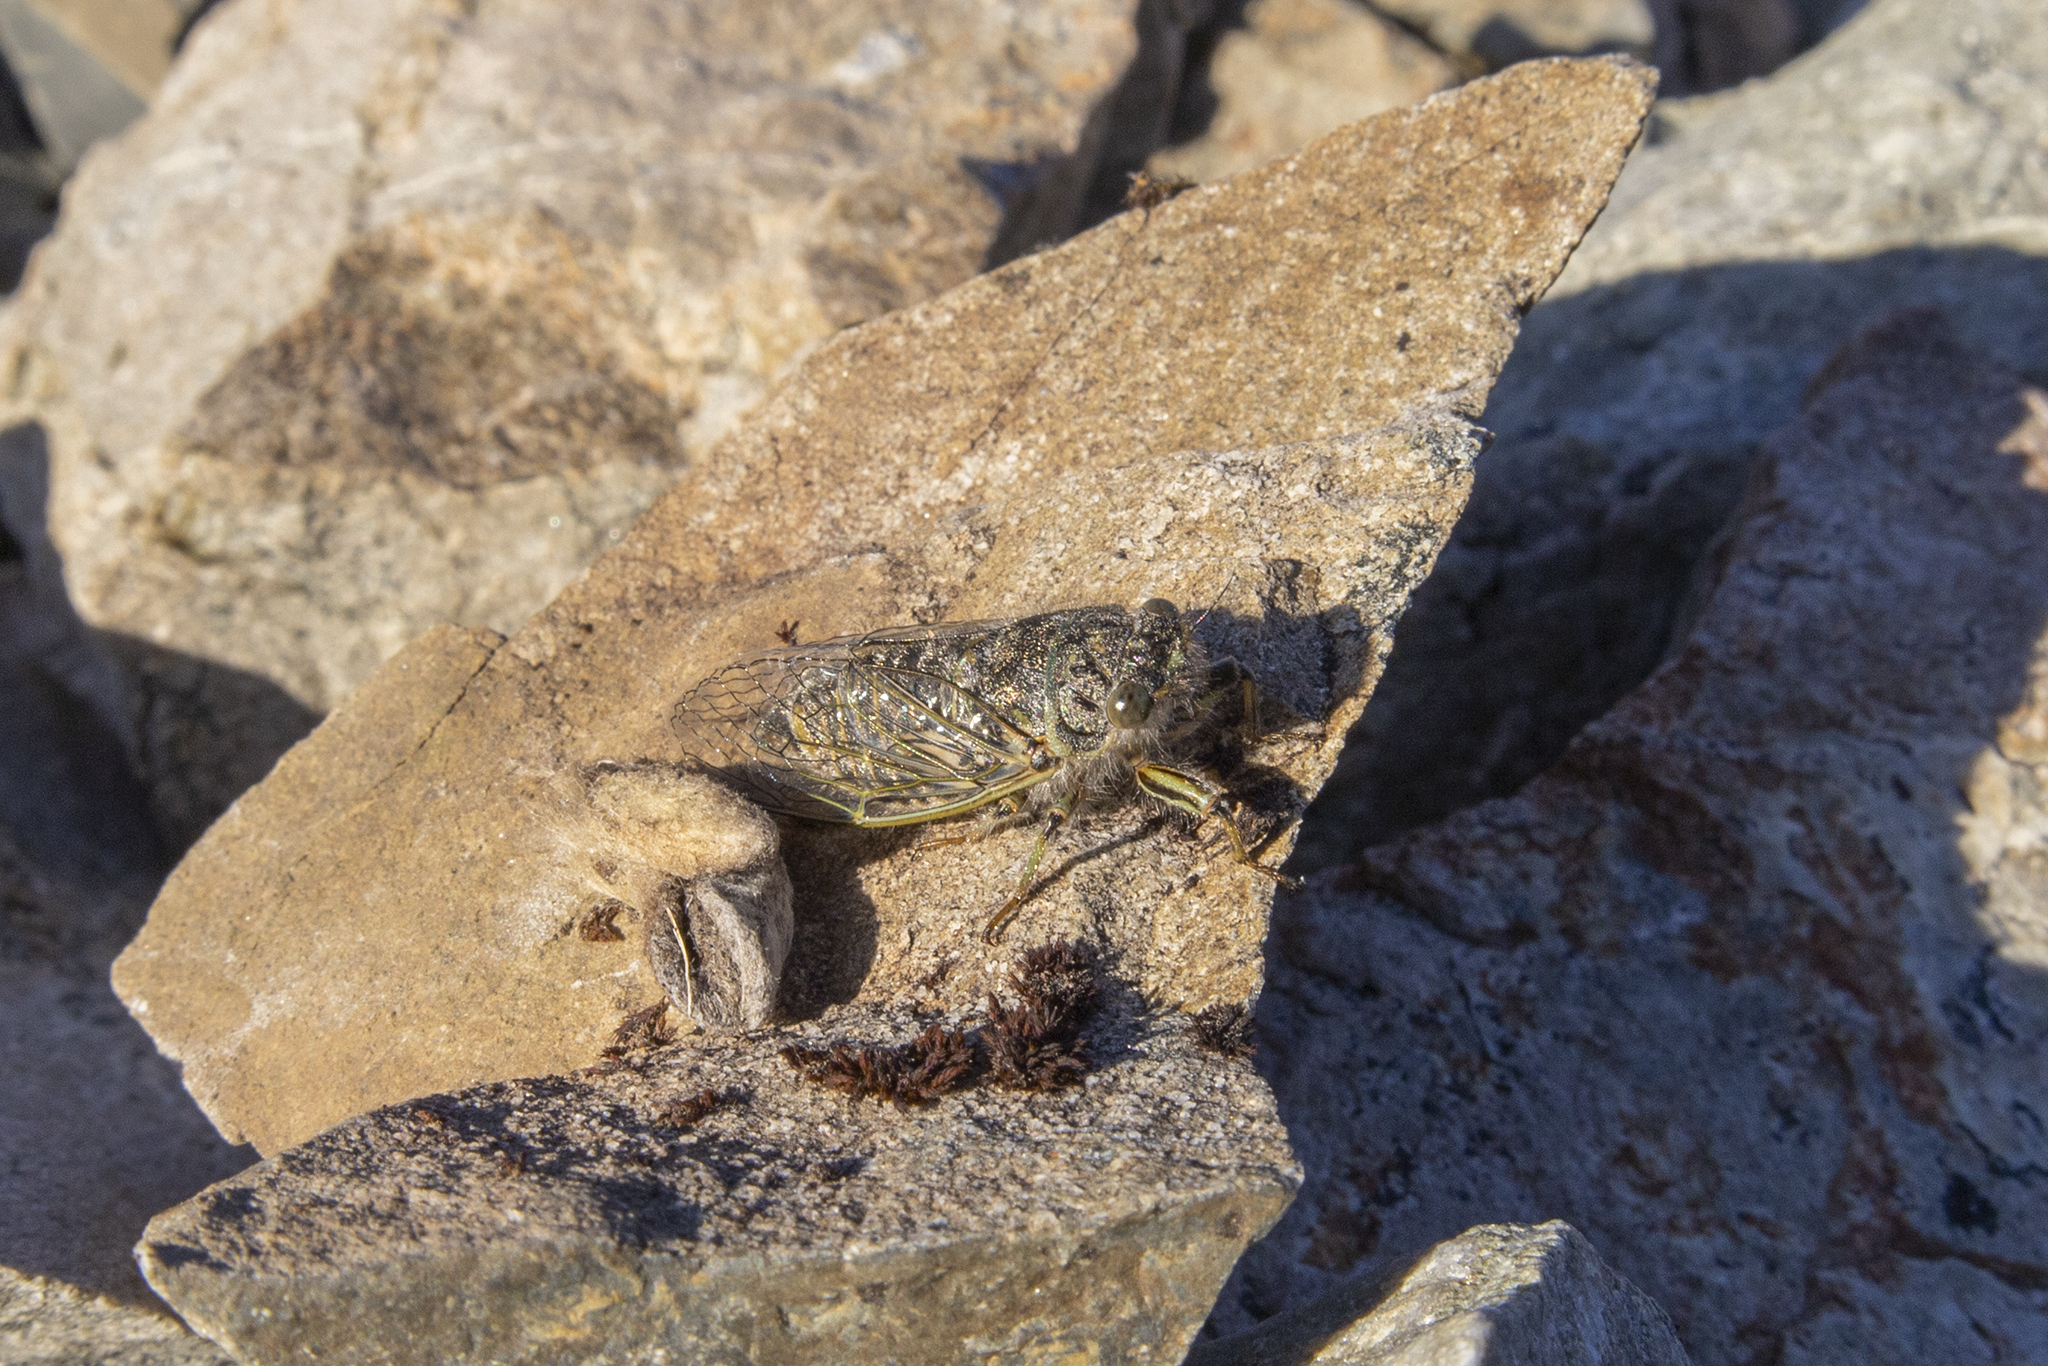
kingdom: Animalia
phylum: Arthropoda
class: Insecta
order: Hemiptera
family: Cicadidae
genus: Maoricicada
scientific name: Maoricicada oromelaena
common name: Greater alpine black cicada
